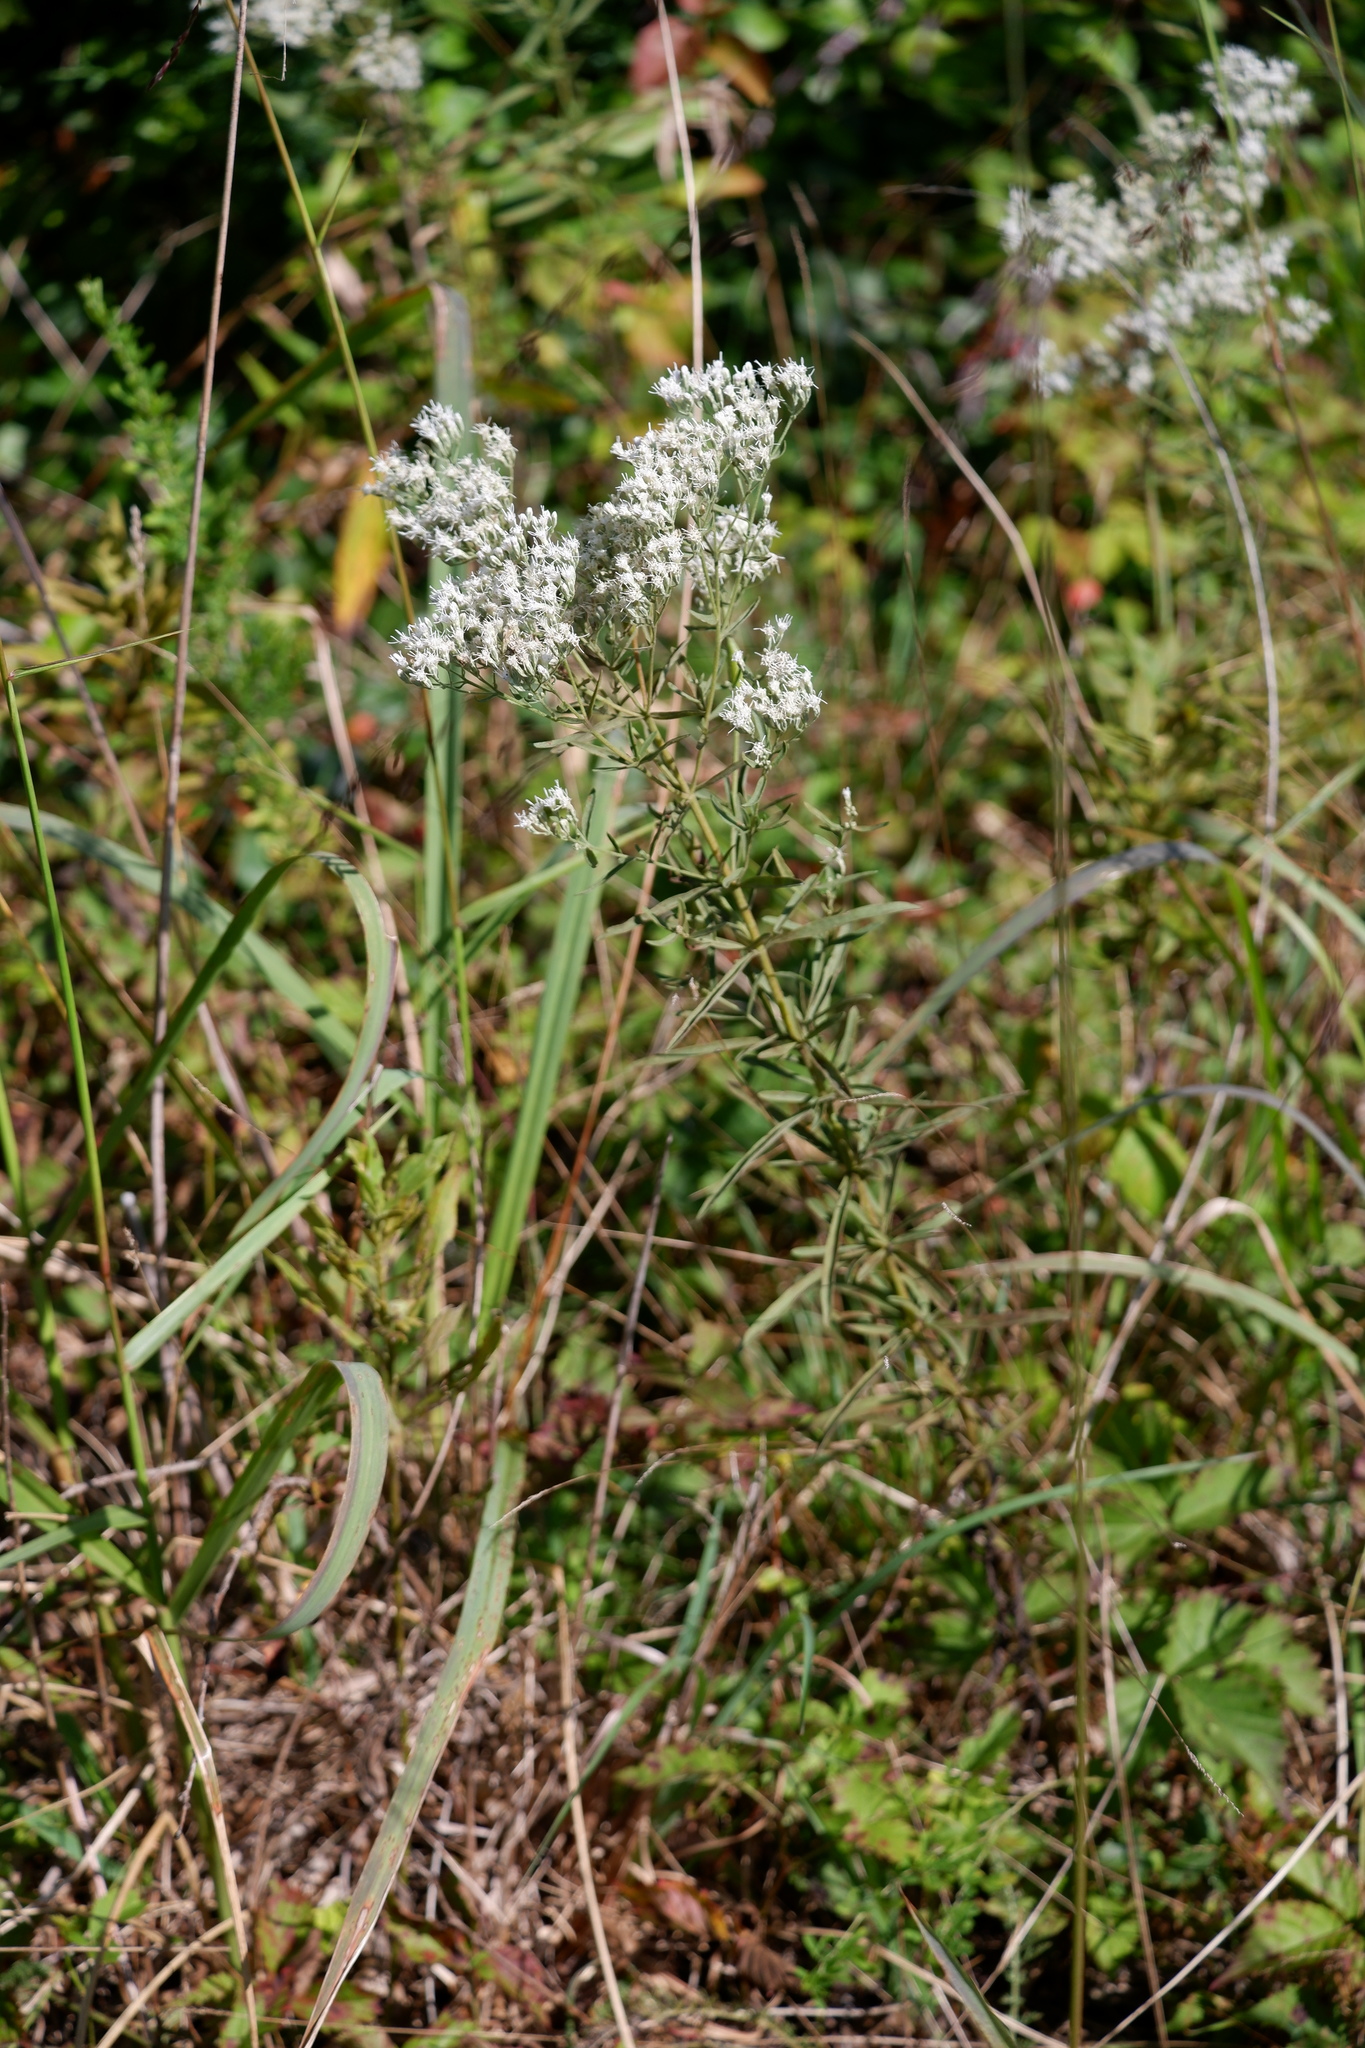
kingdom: Plantae
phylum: Tracheophyta
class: Magnoliopsida
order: Asterales
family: Asteraceae
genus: Eupatorium
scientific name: Eupatorium torreyanum
